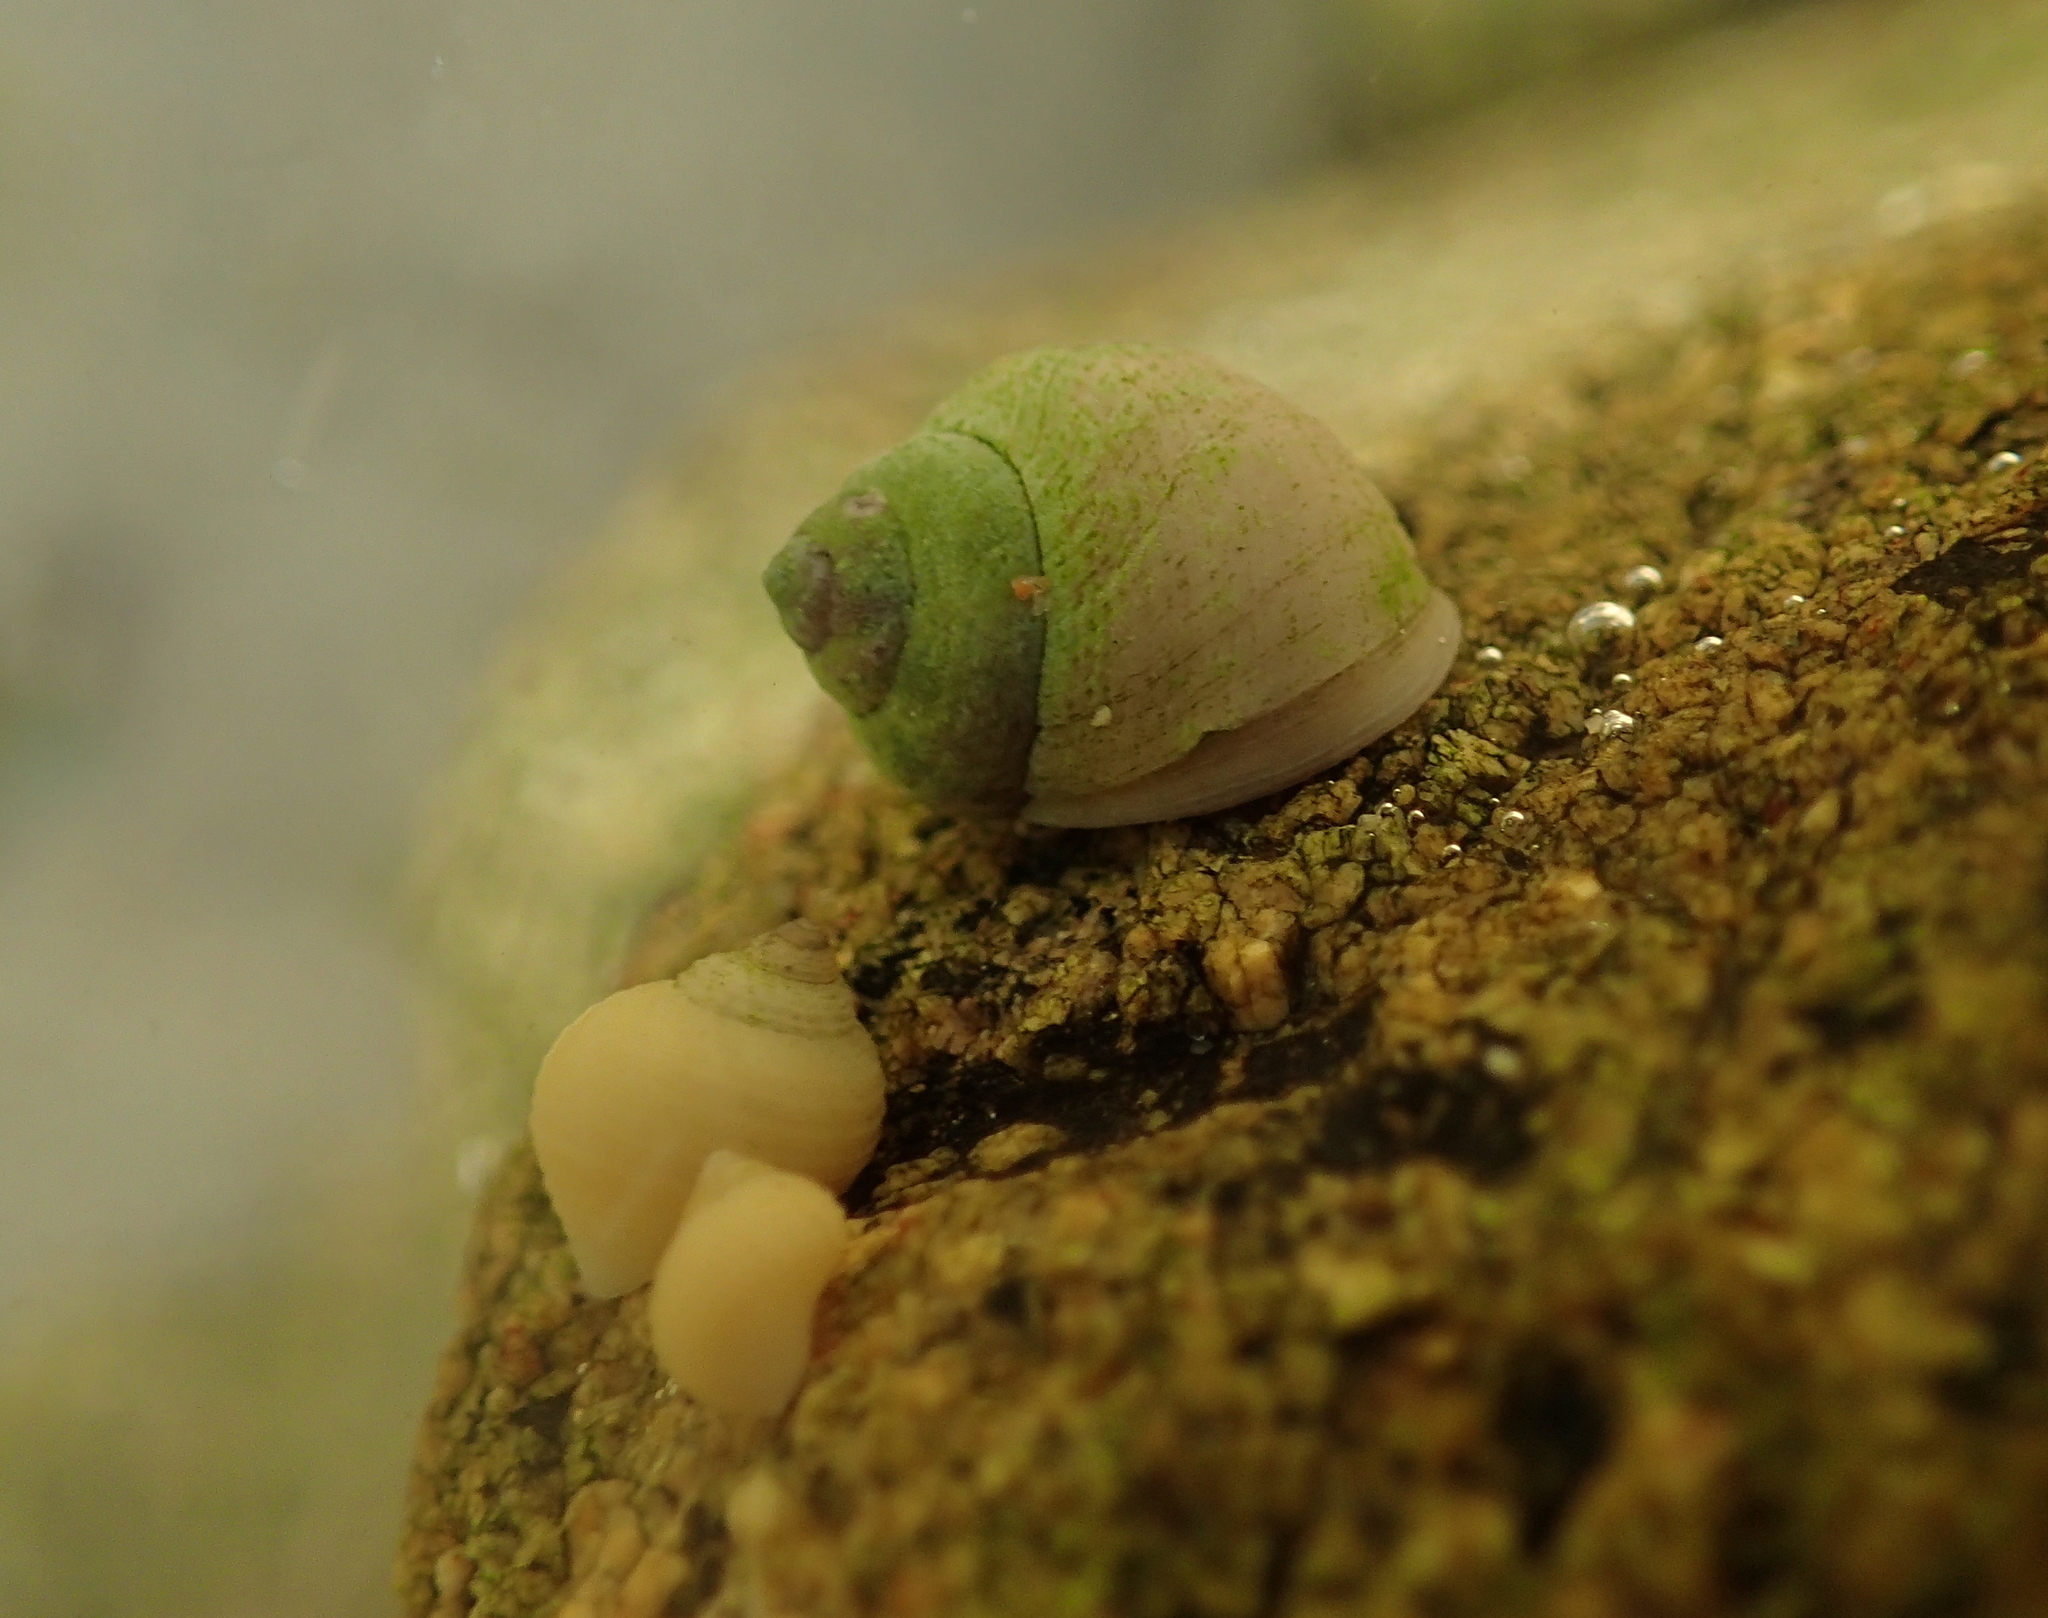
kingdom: Animalia
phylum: Mollusca
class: Gastropoda
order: Littorinimorpha
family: Littorinidae
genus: Littorina
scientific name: Littorina saxatilis
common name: Black-lined periwinkle
